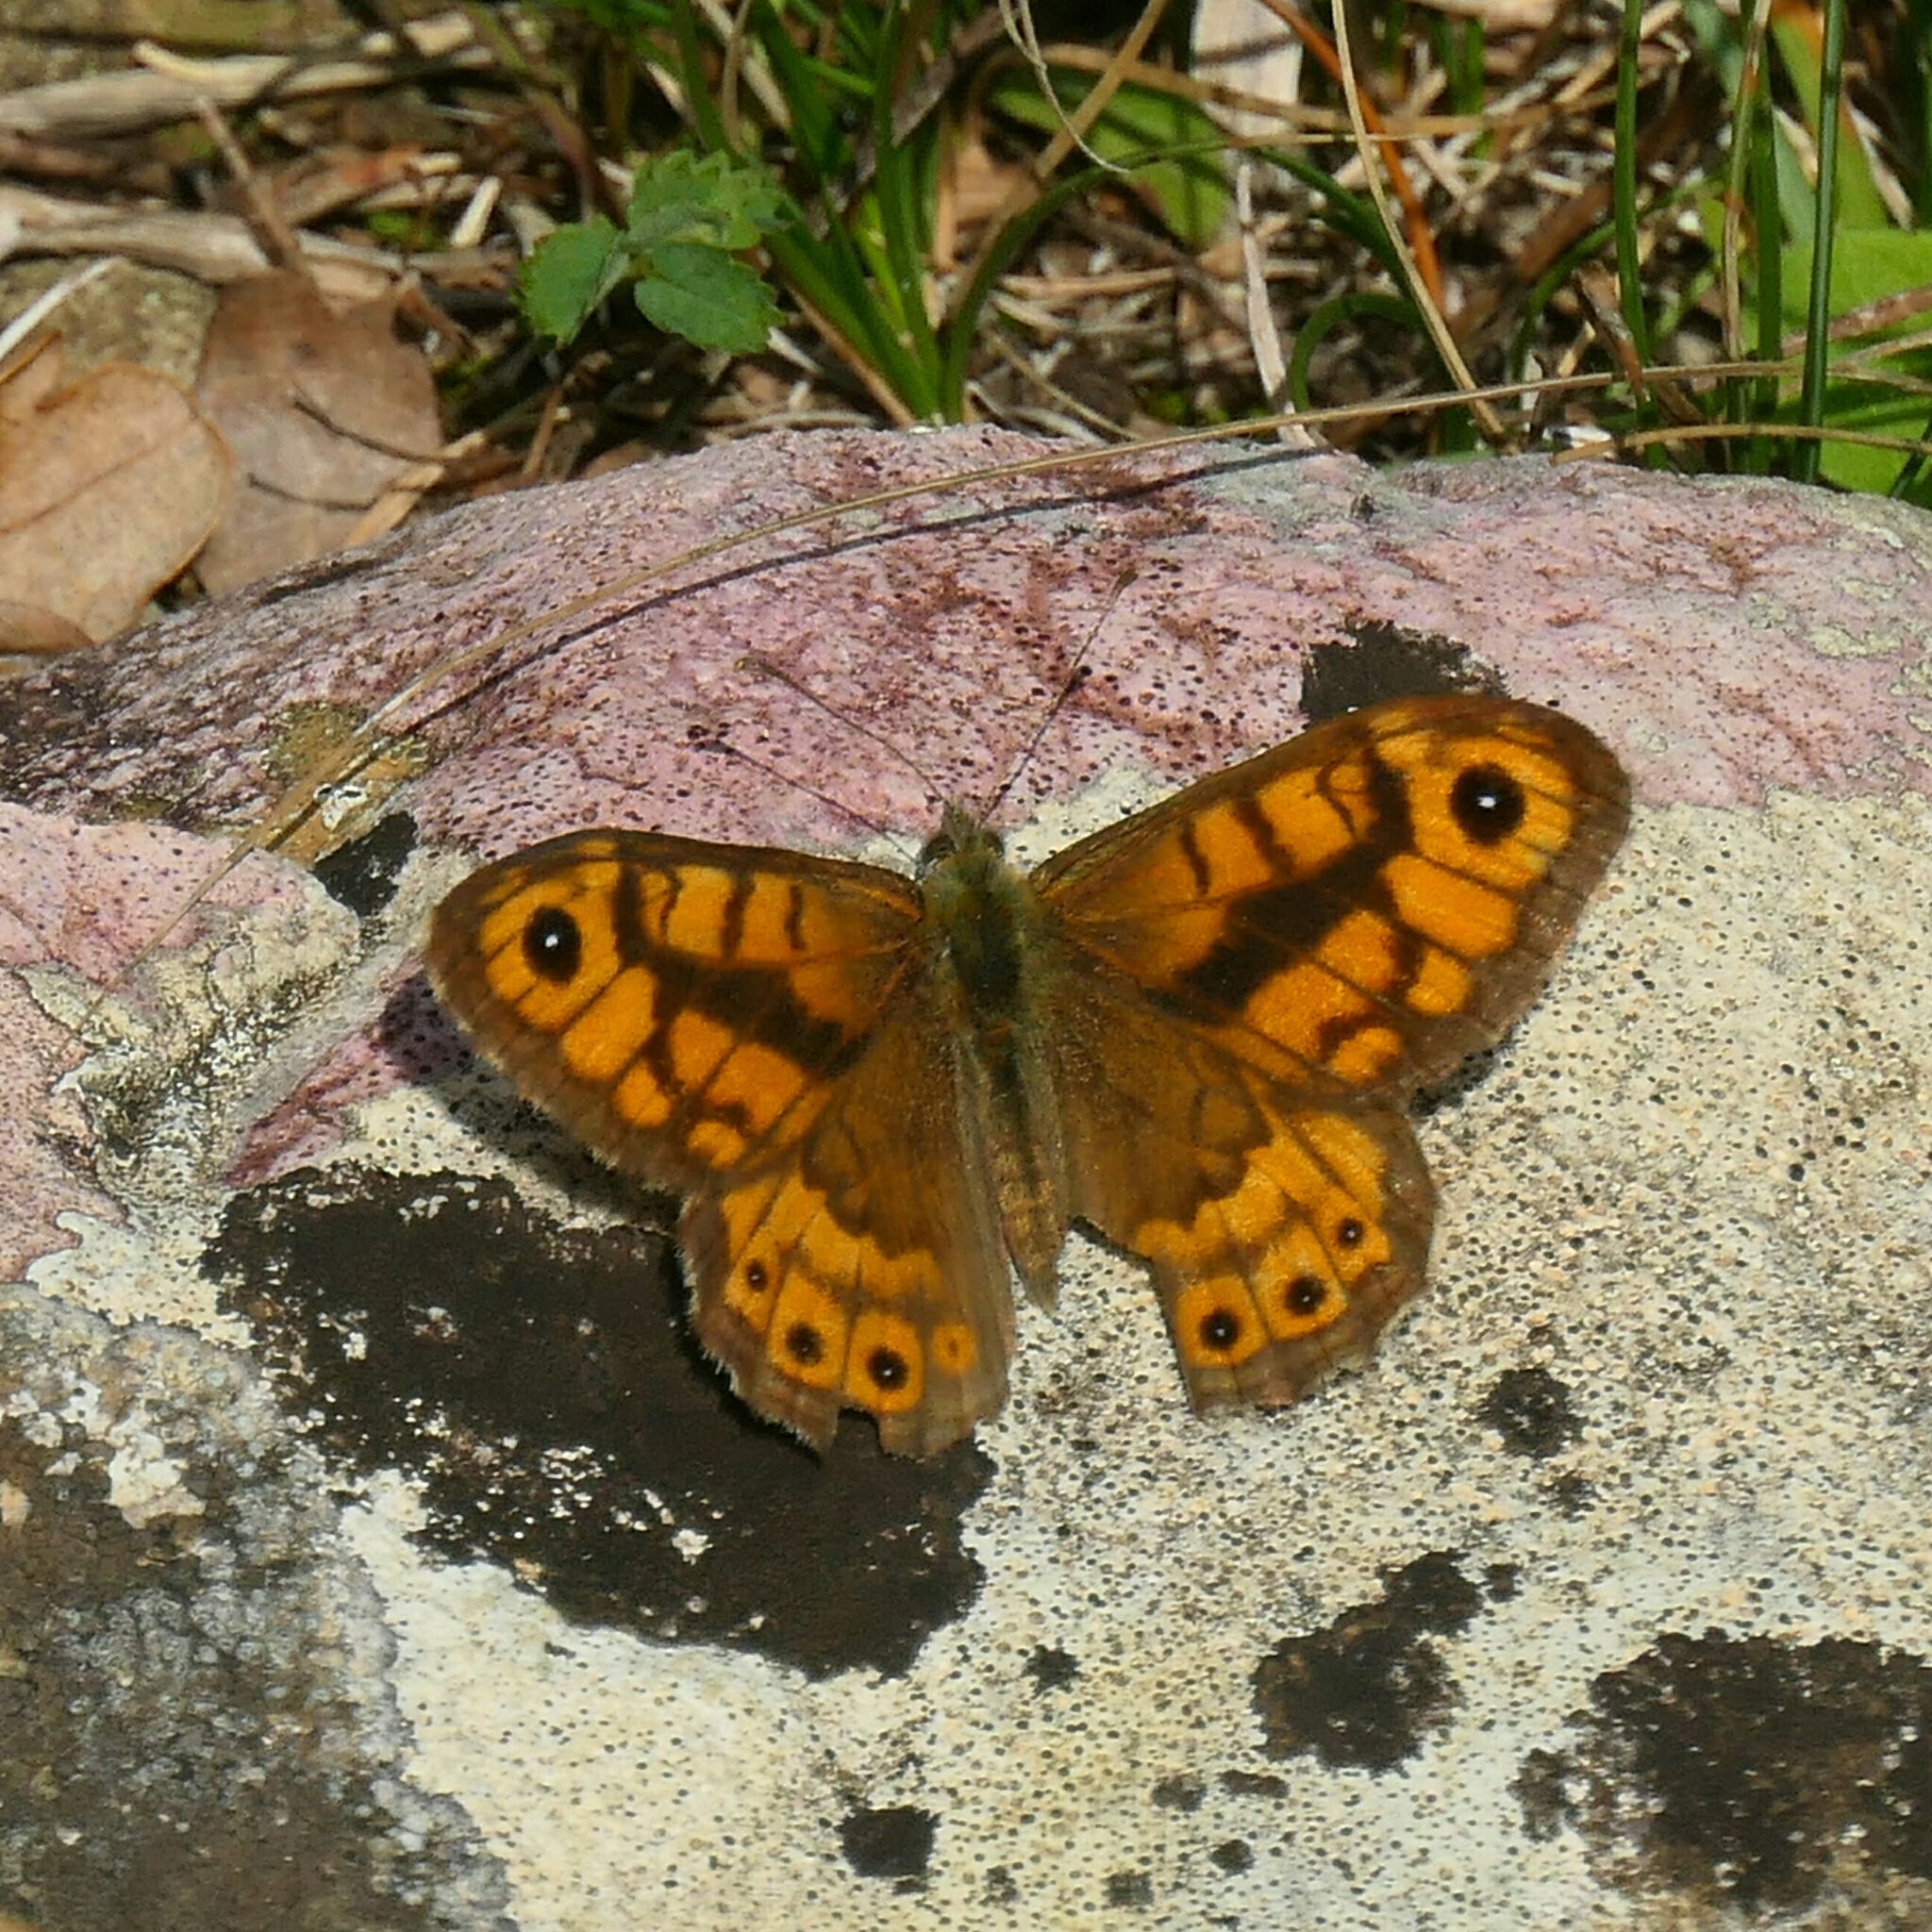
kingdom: Animalia
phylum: Arthropoda
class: Insecta
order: Lepidoptera
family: Nymphalidae
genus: Pararge
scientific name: Pararge Lasiommata megera
